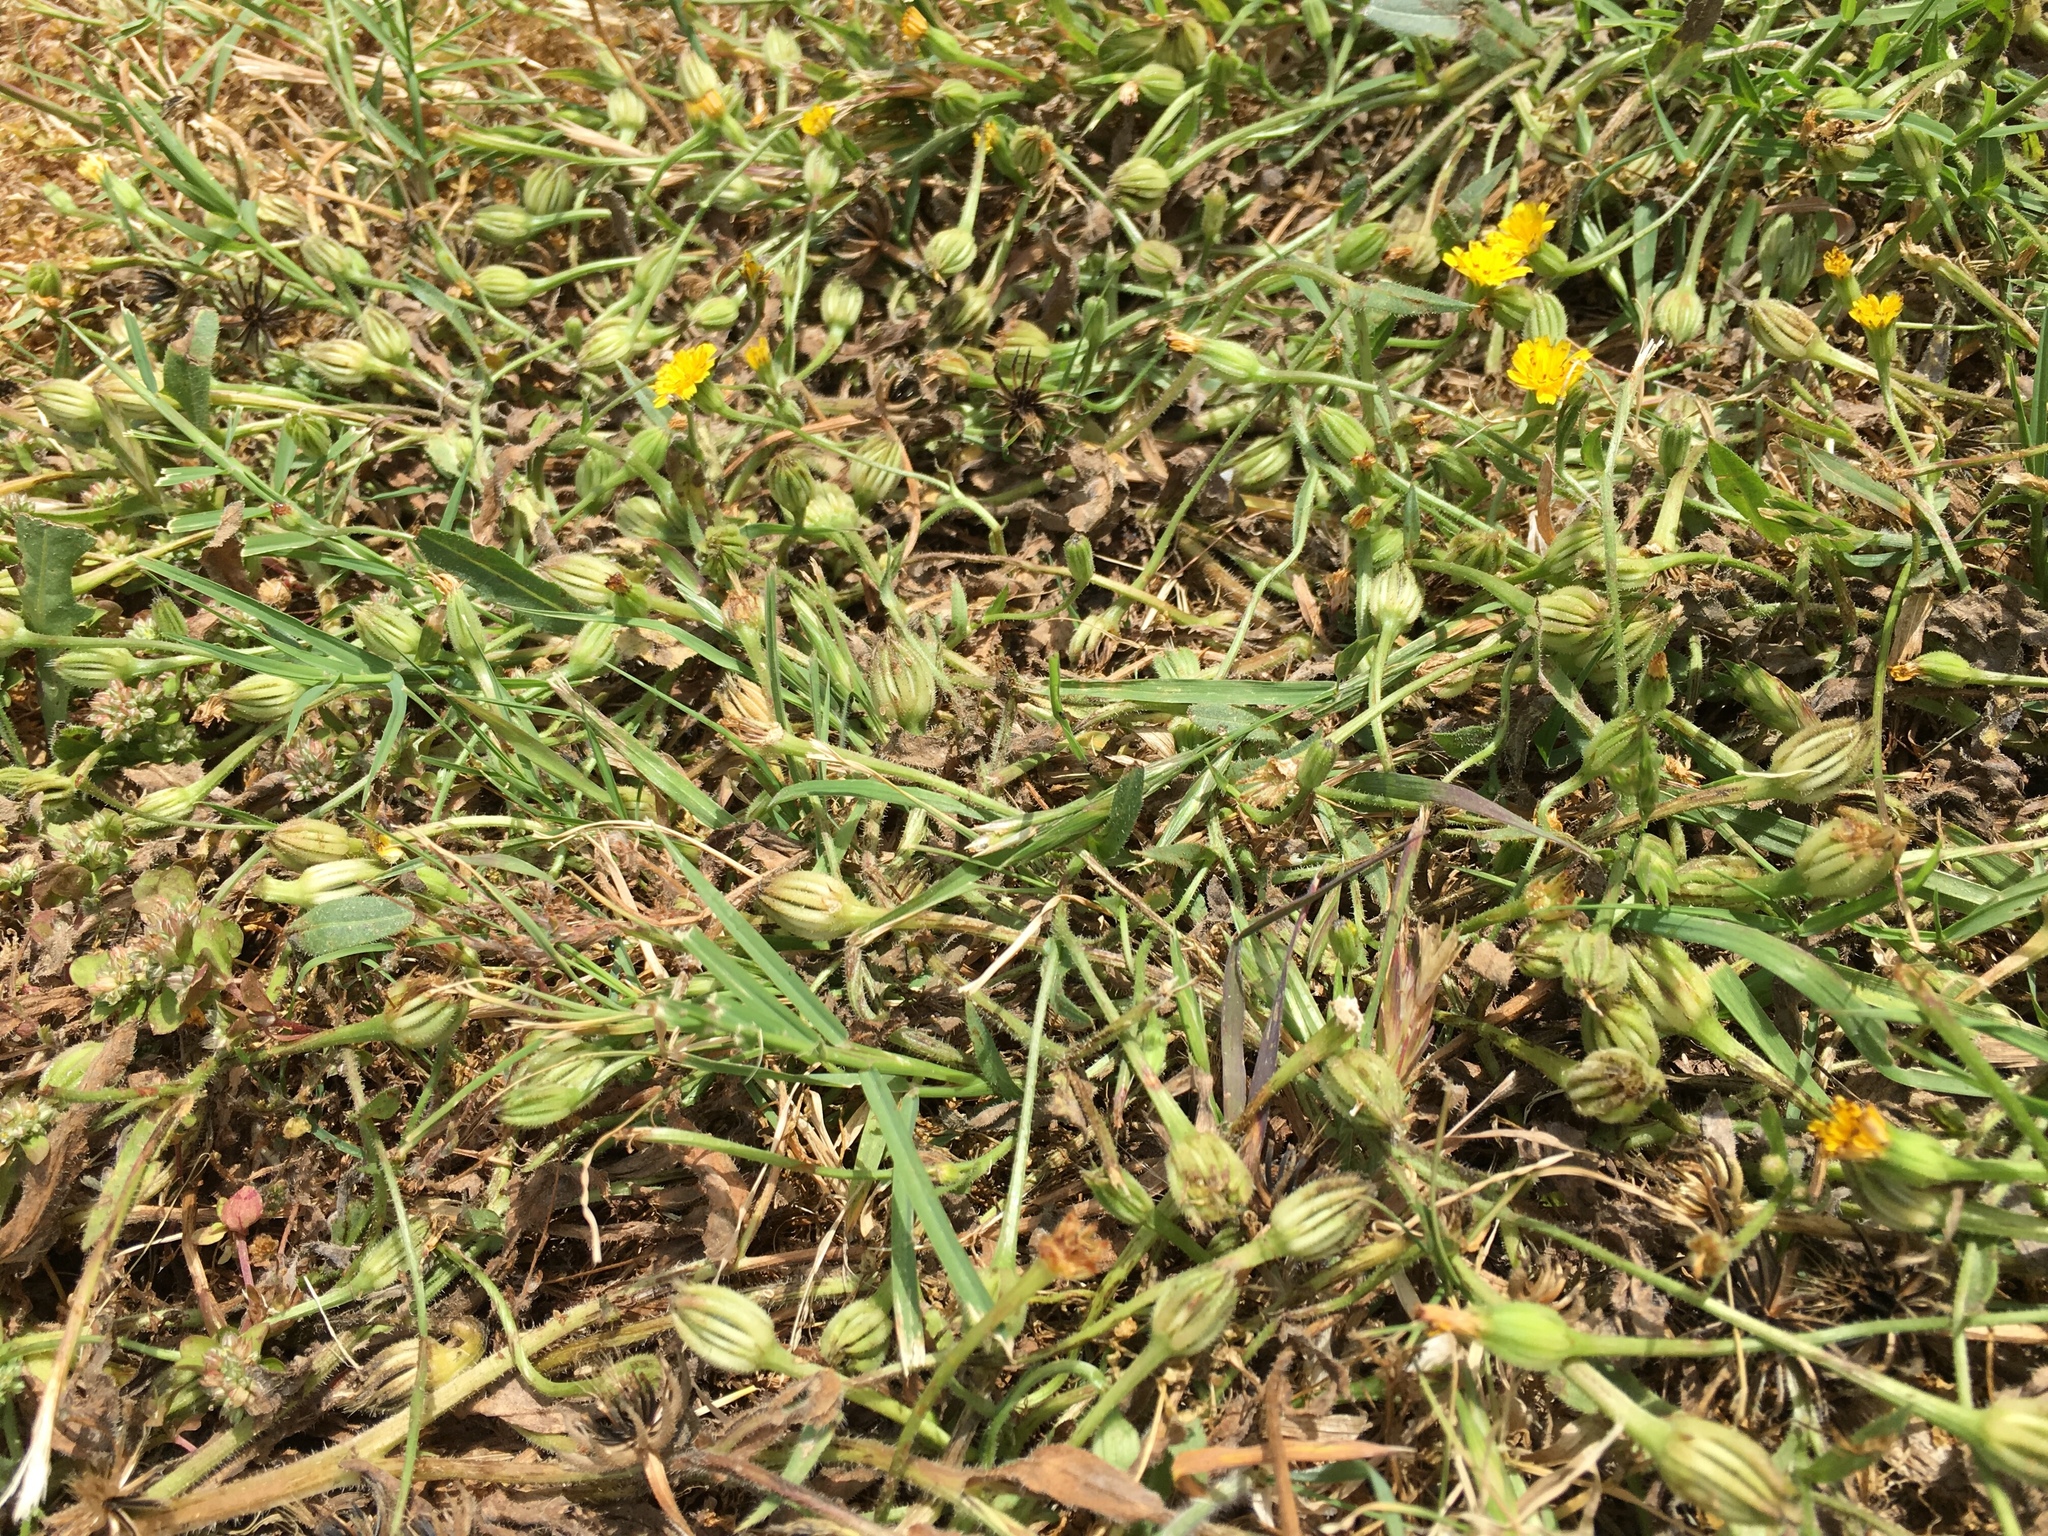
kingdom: Plantae
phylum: Tracheophyta
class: Magnoliopsida
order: Asterales
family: Asteraceae
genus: Hedypnois
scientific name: Hedypnois rhagadioloides
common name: Cretan weed
